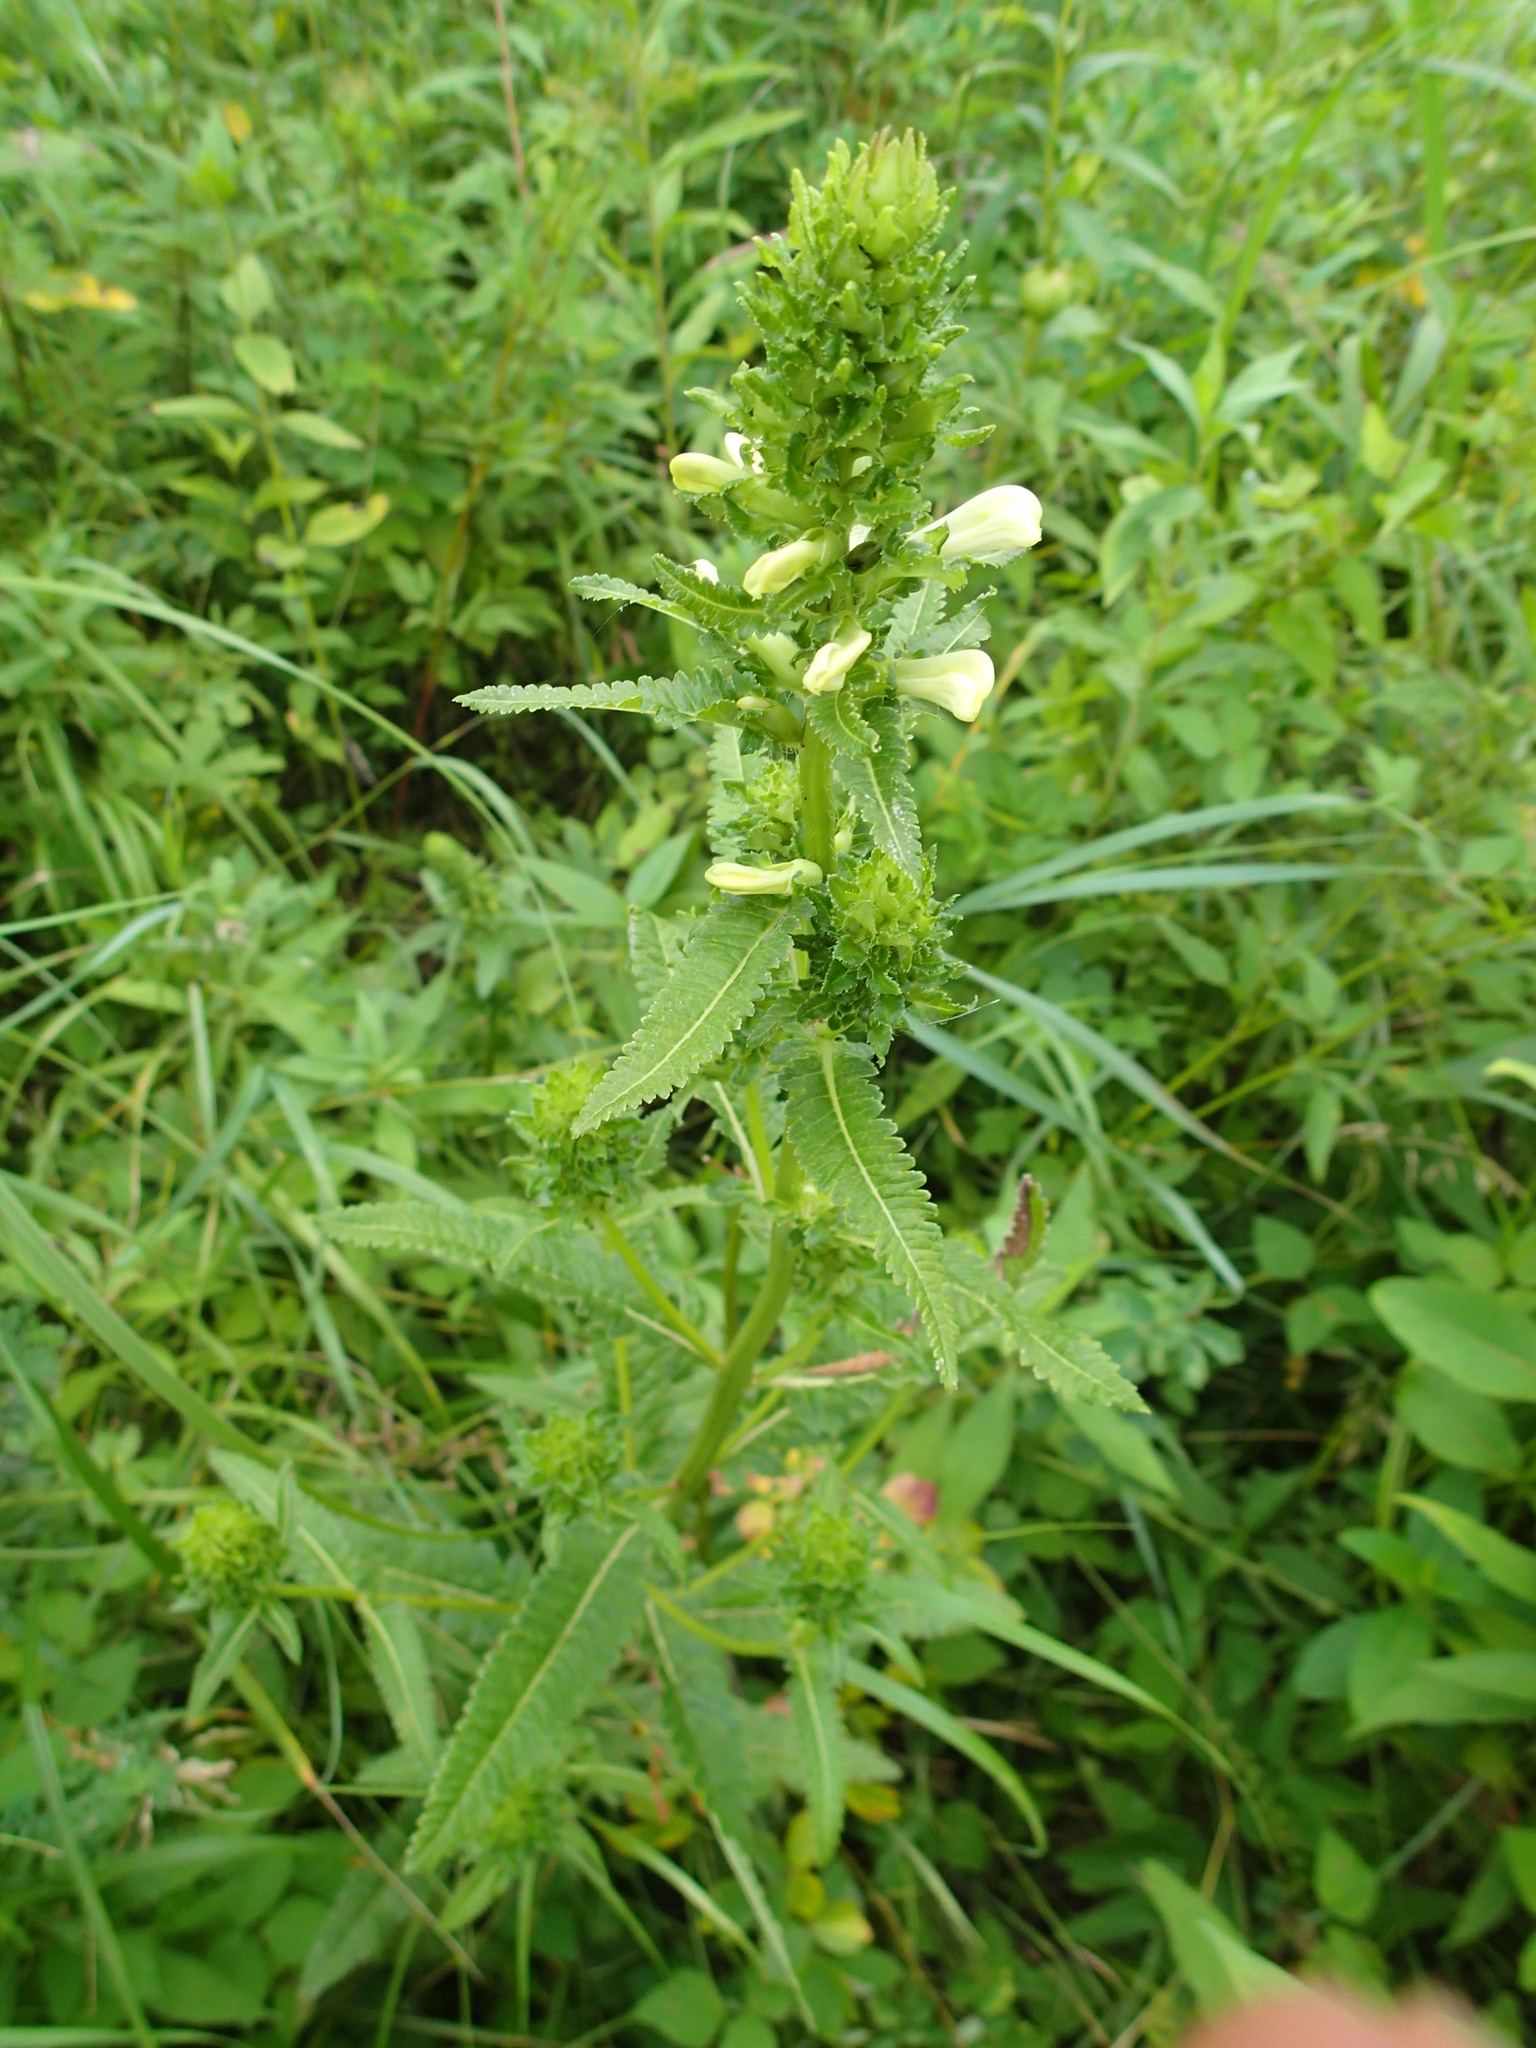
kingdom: Plantae
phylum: Tracheophyta
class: Magnoliopsida
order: Lamiales
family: Orobanchaceae
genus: Pedicularis
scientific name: Pedicularis lanceolata
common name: Swamp lousewort
